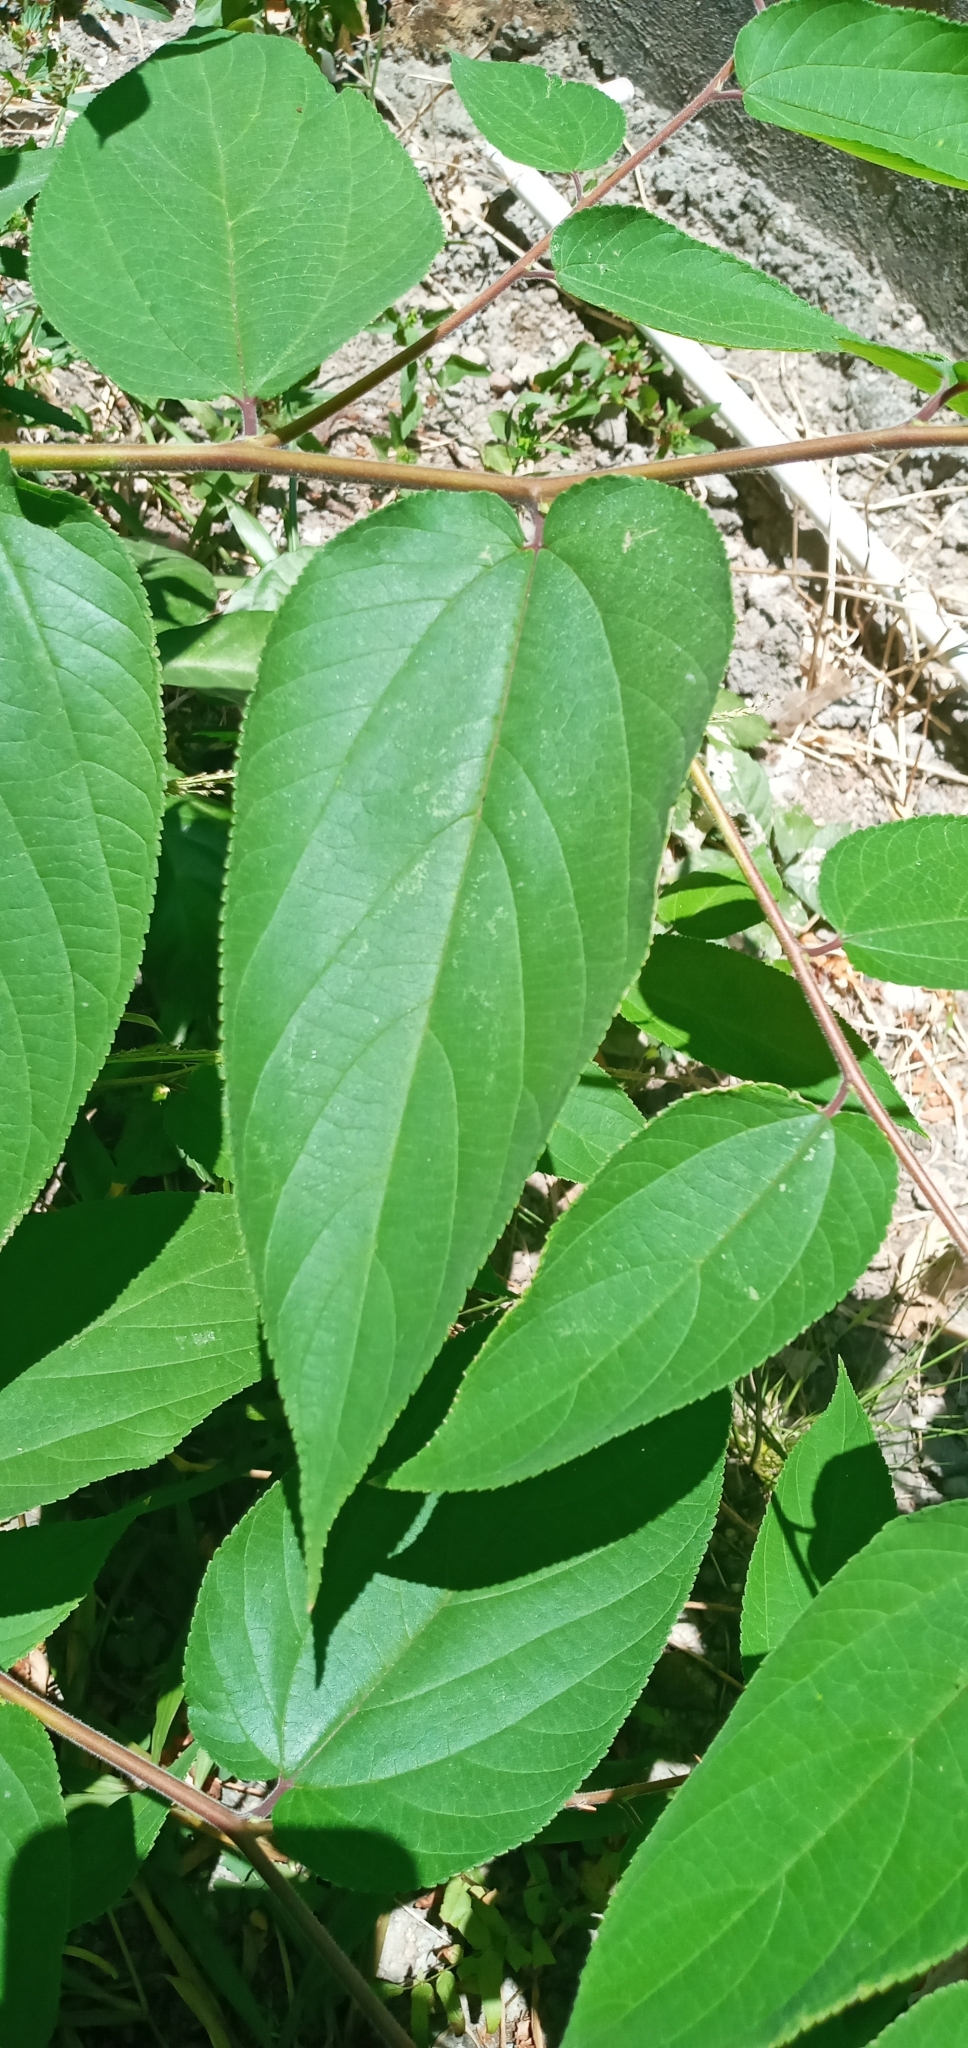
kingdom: Plantae
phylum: Tracheophyta
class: Magnoliopsida
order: Rosales
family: Cannabaceae
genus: Trema
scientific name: Trema orientale
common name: Indian charcoal tree
